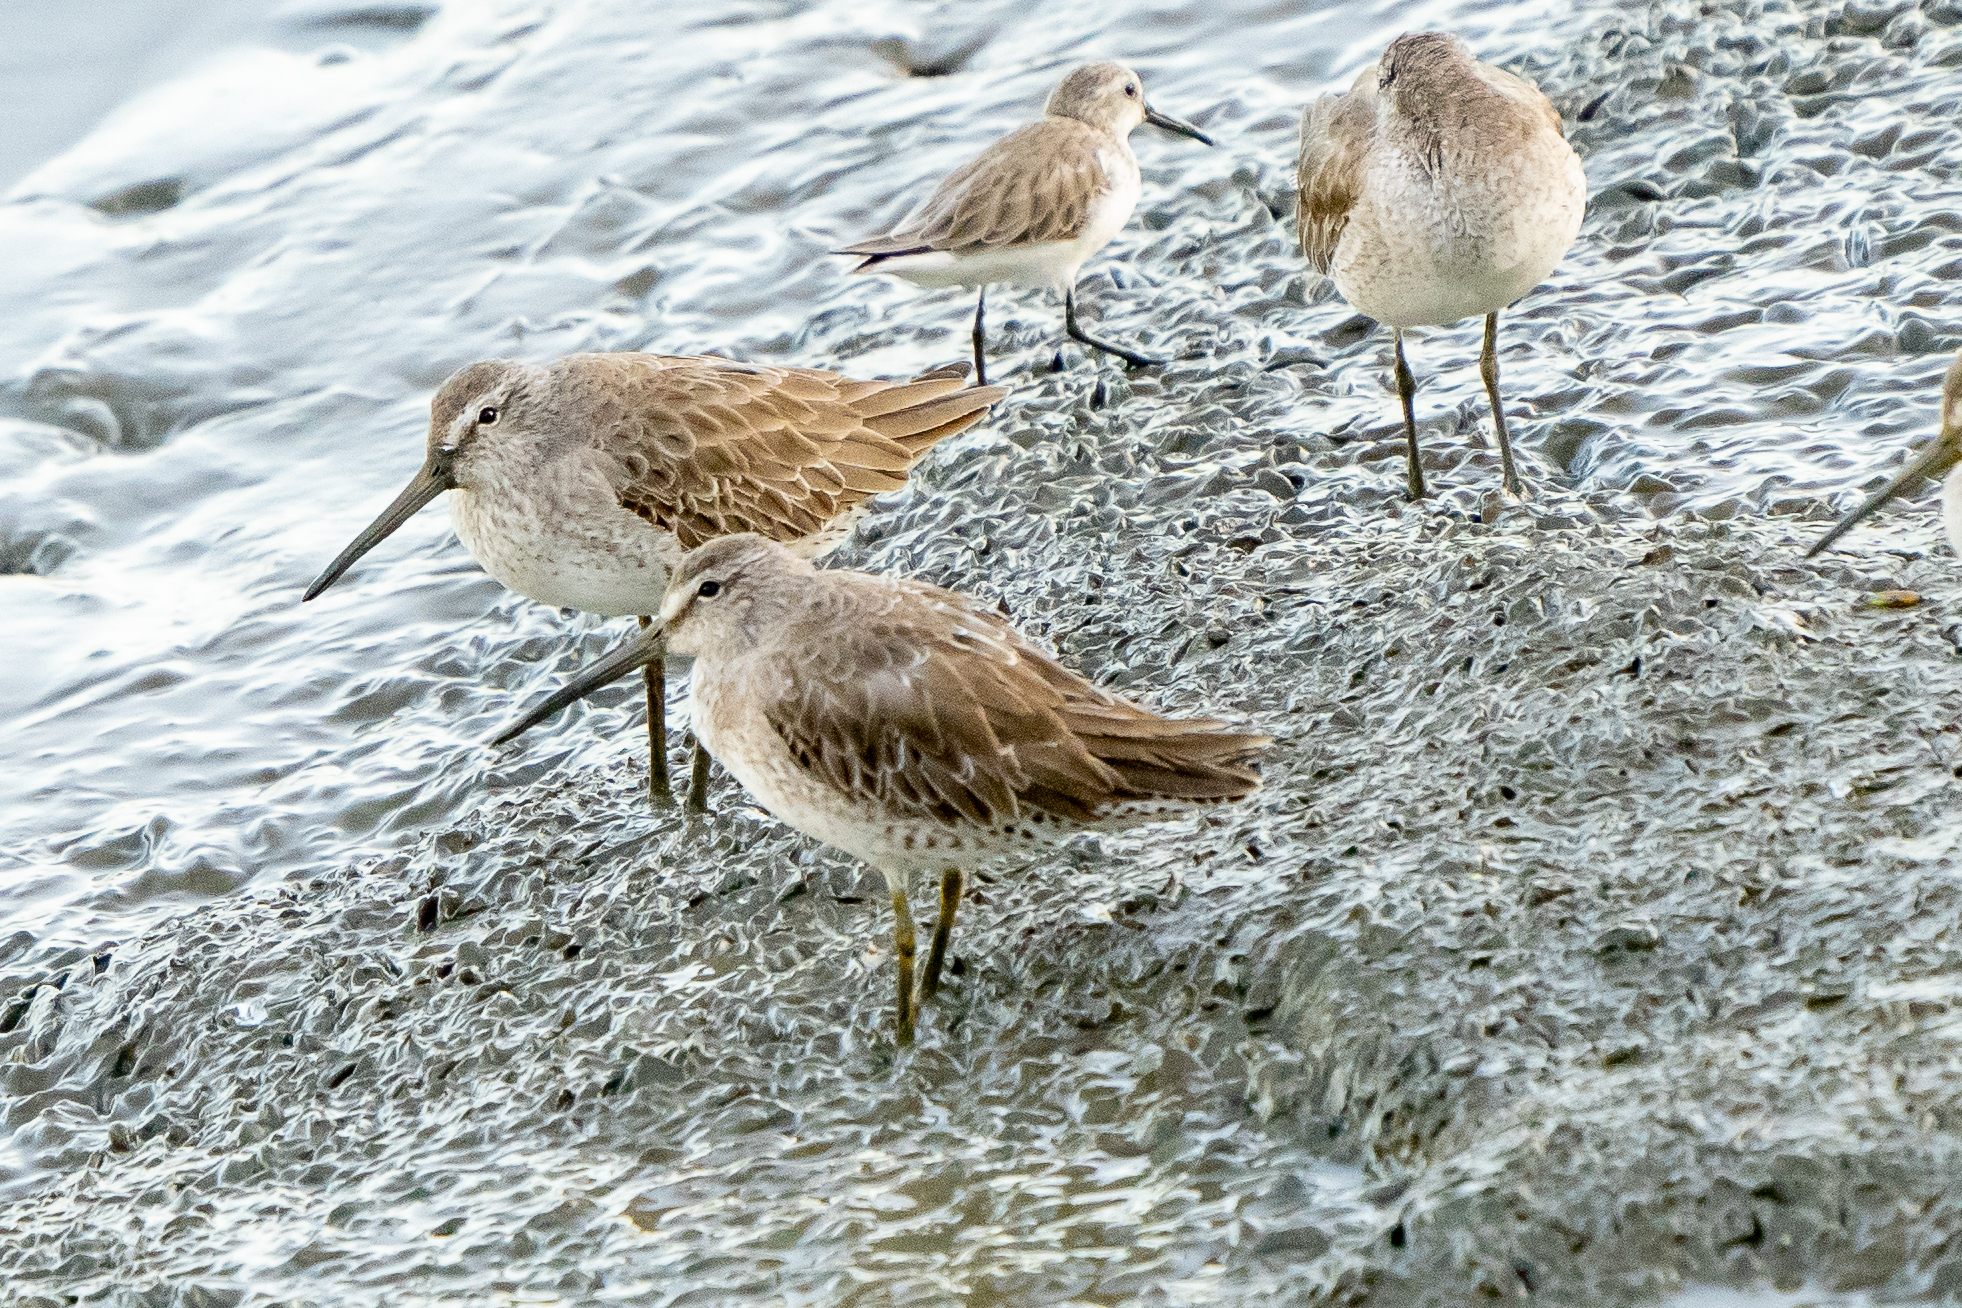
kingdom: Animalia
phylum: Chordata
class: Aves
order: Charadriiformes
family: Scolopacidae
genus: Limnodromus
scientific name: Limnodromus griseus
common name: Short-billed dowitcher
